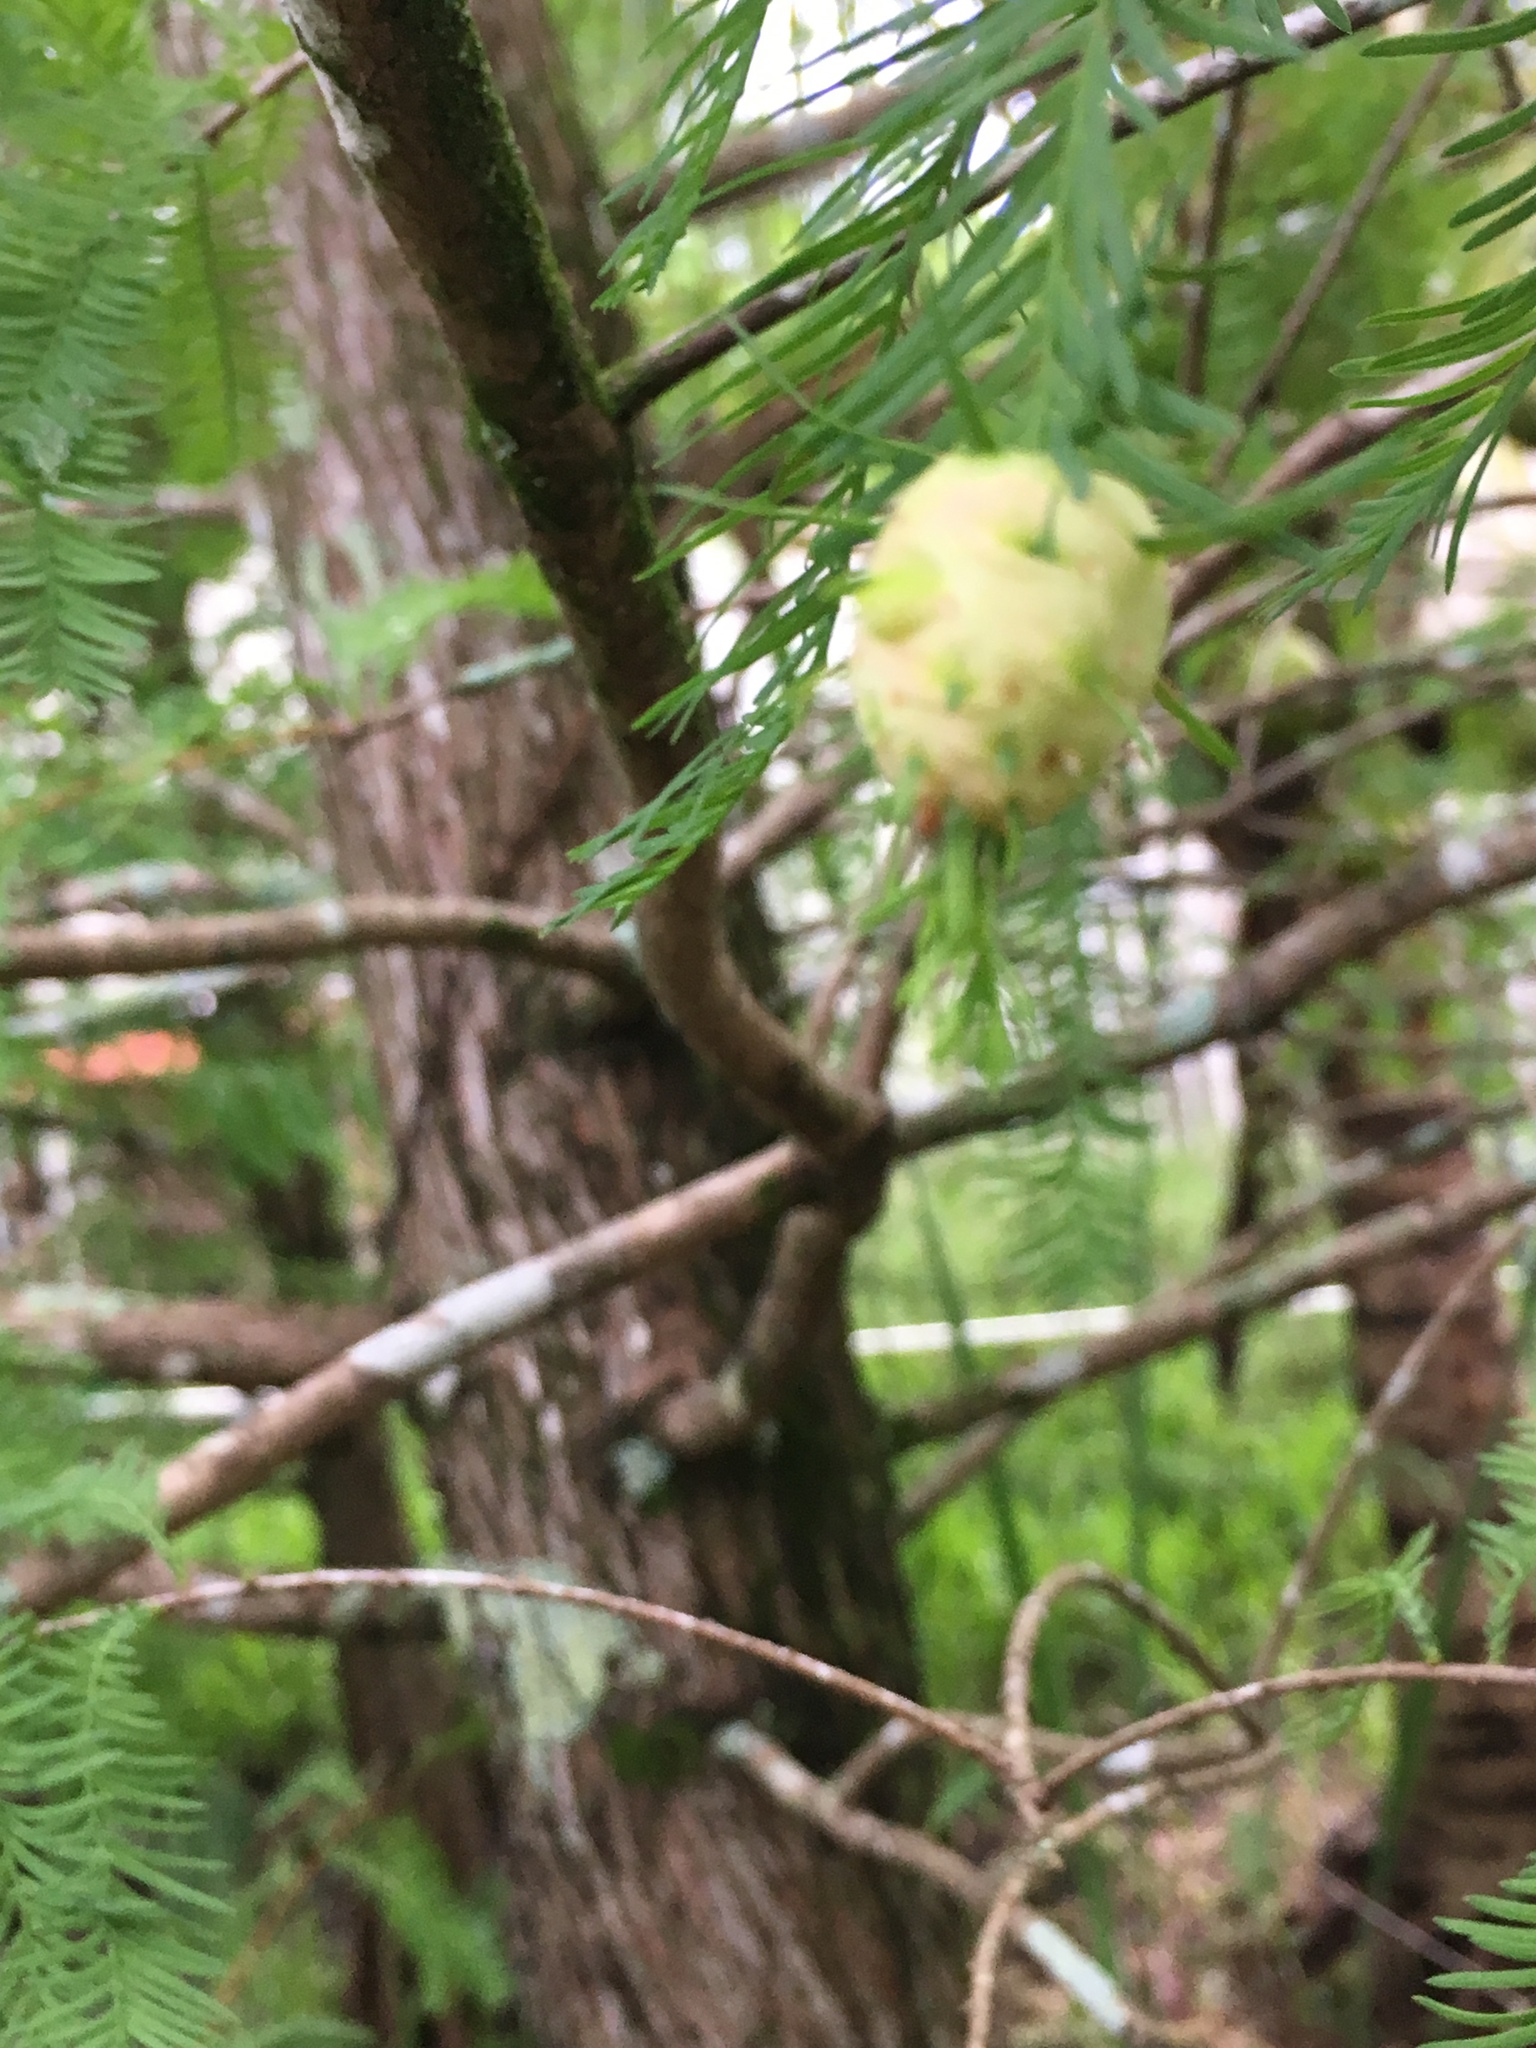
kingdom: Animalia
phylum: Arthropoda
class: Insecta
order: Diptera
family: Cecidomyiidae
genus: Taxodiomyia
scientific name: Taxodiomyia cupressiananassa
